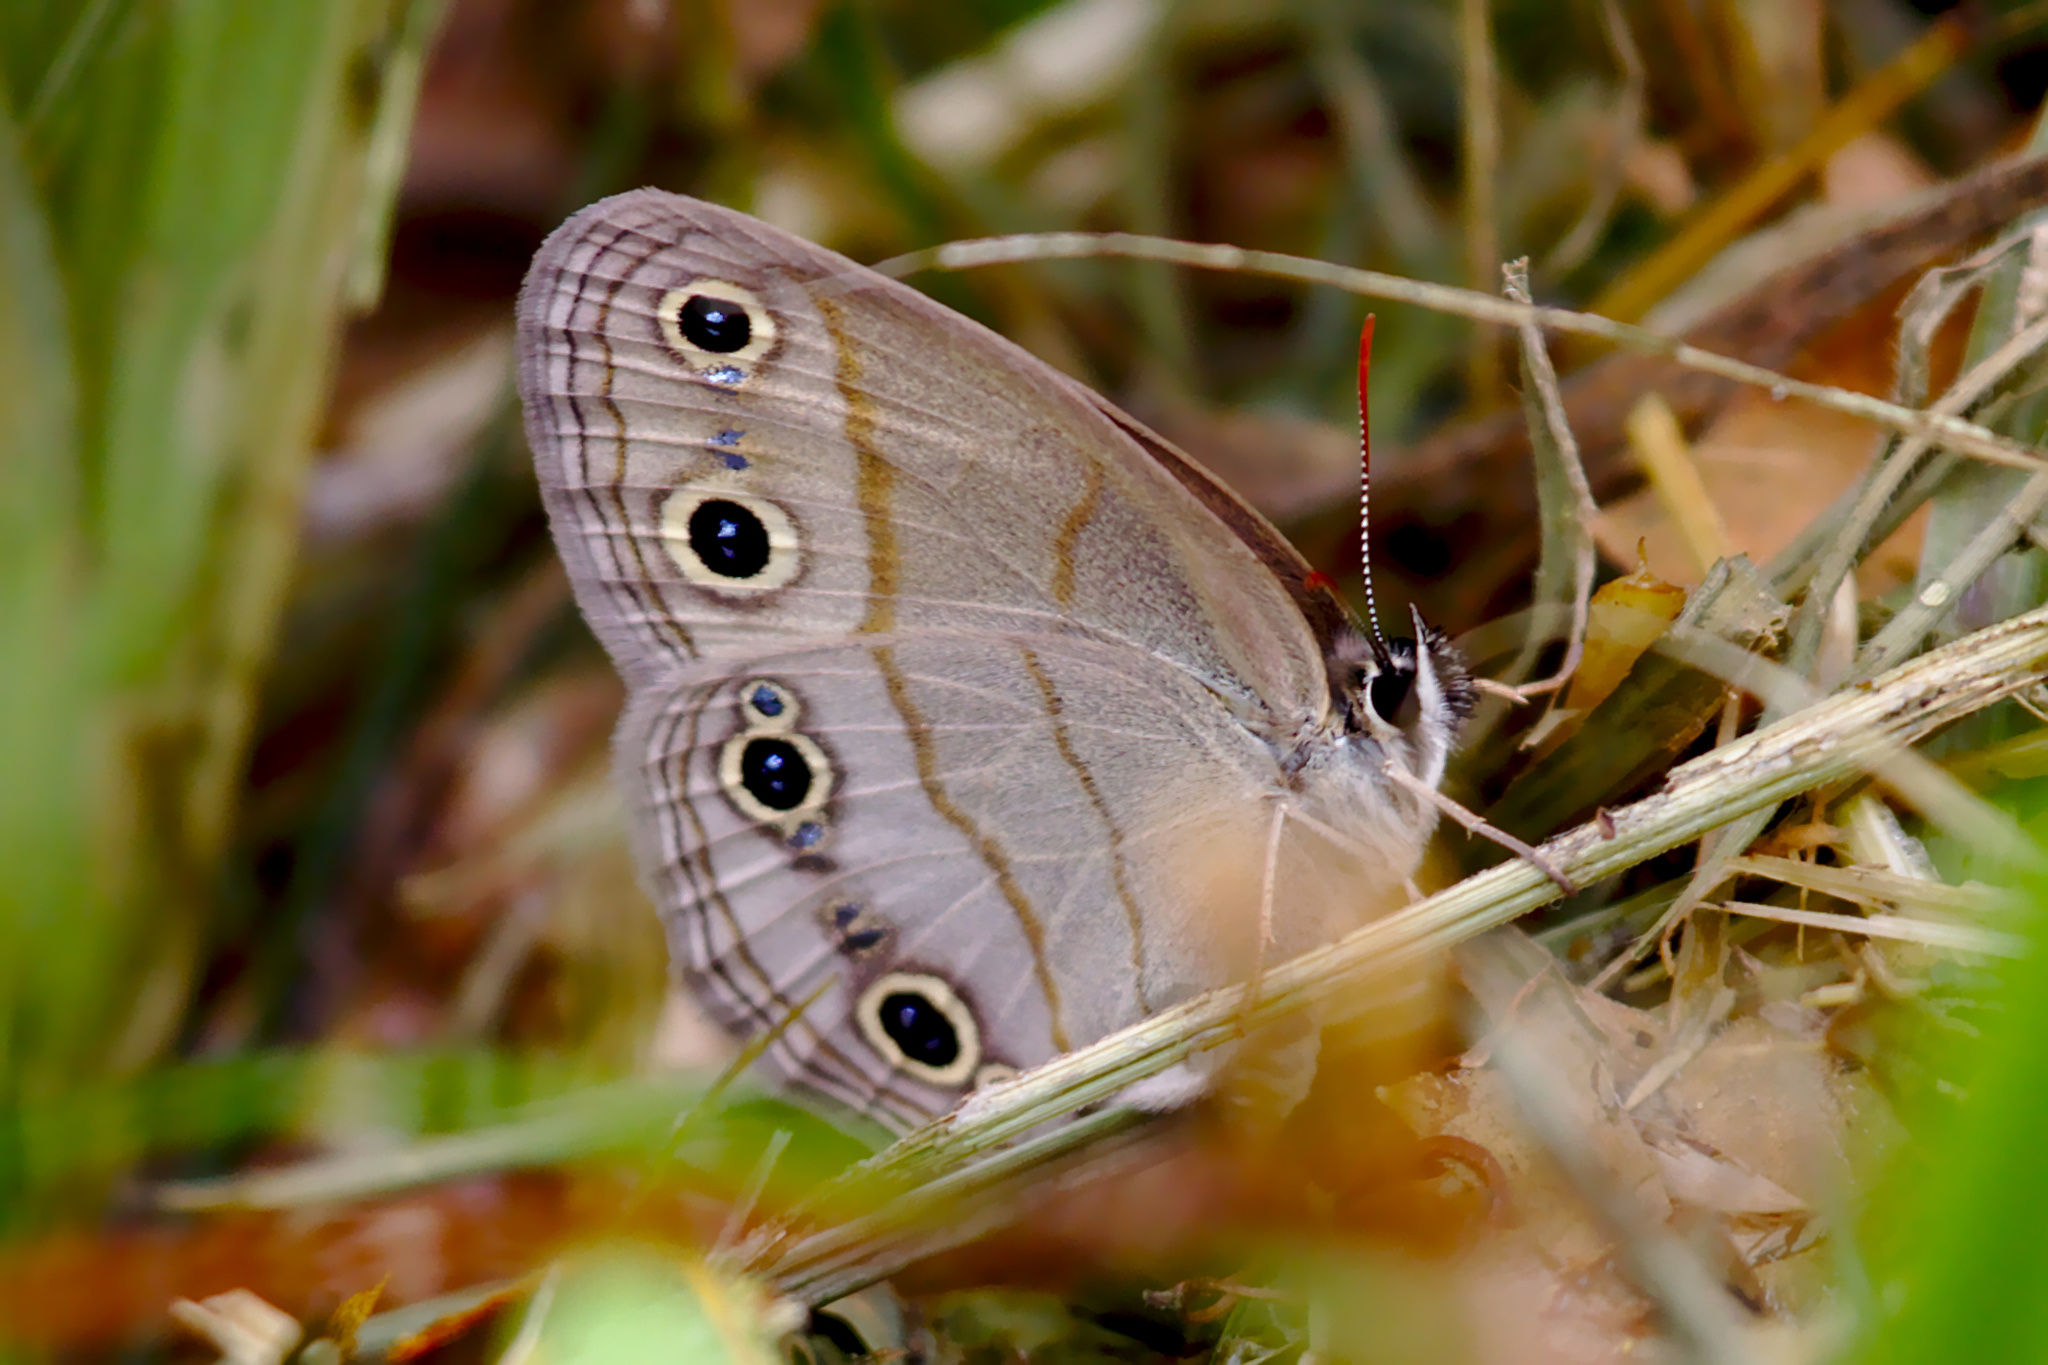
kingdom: Animalia
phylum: Arthropoda
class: Insecta
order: Lepidoptera
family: Nymphalidae
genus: Euptychia
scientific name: Euptychia cymela
